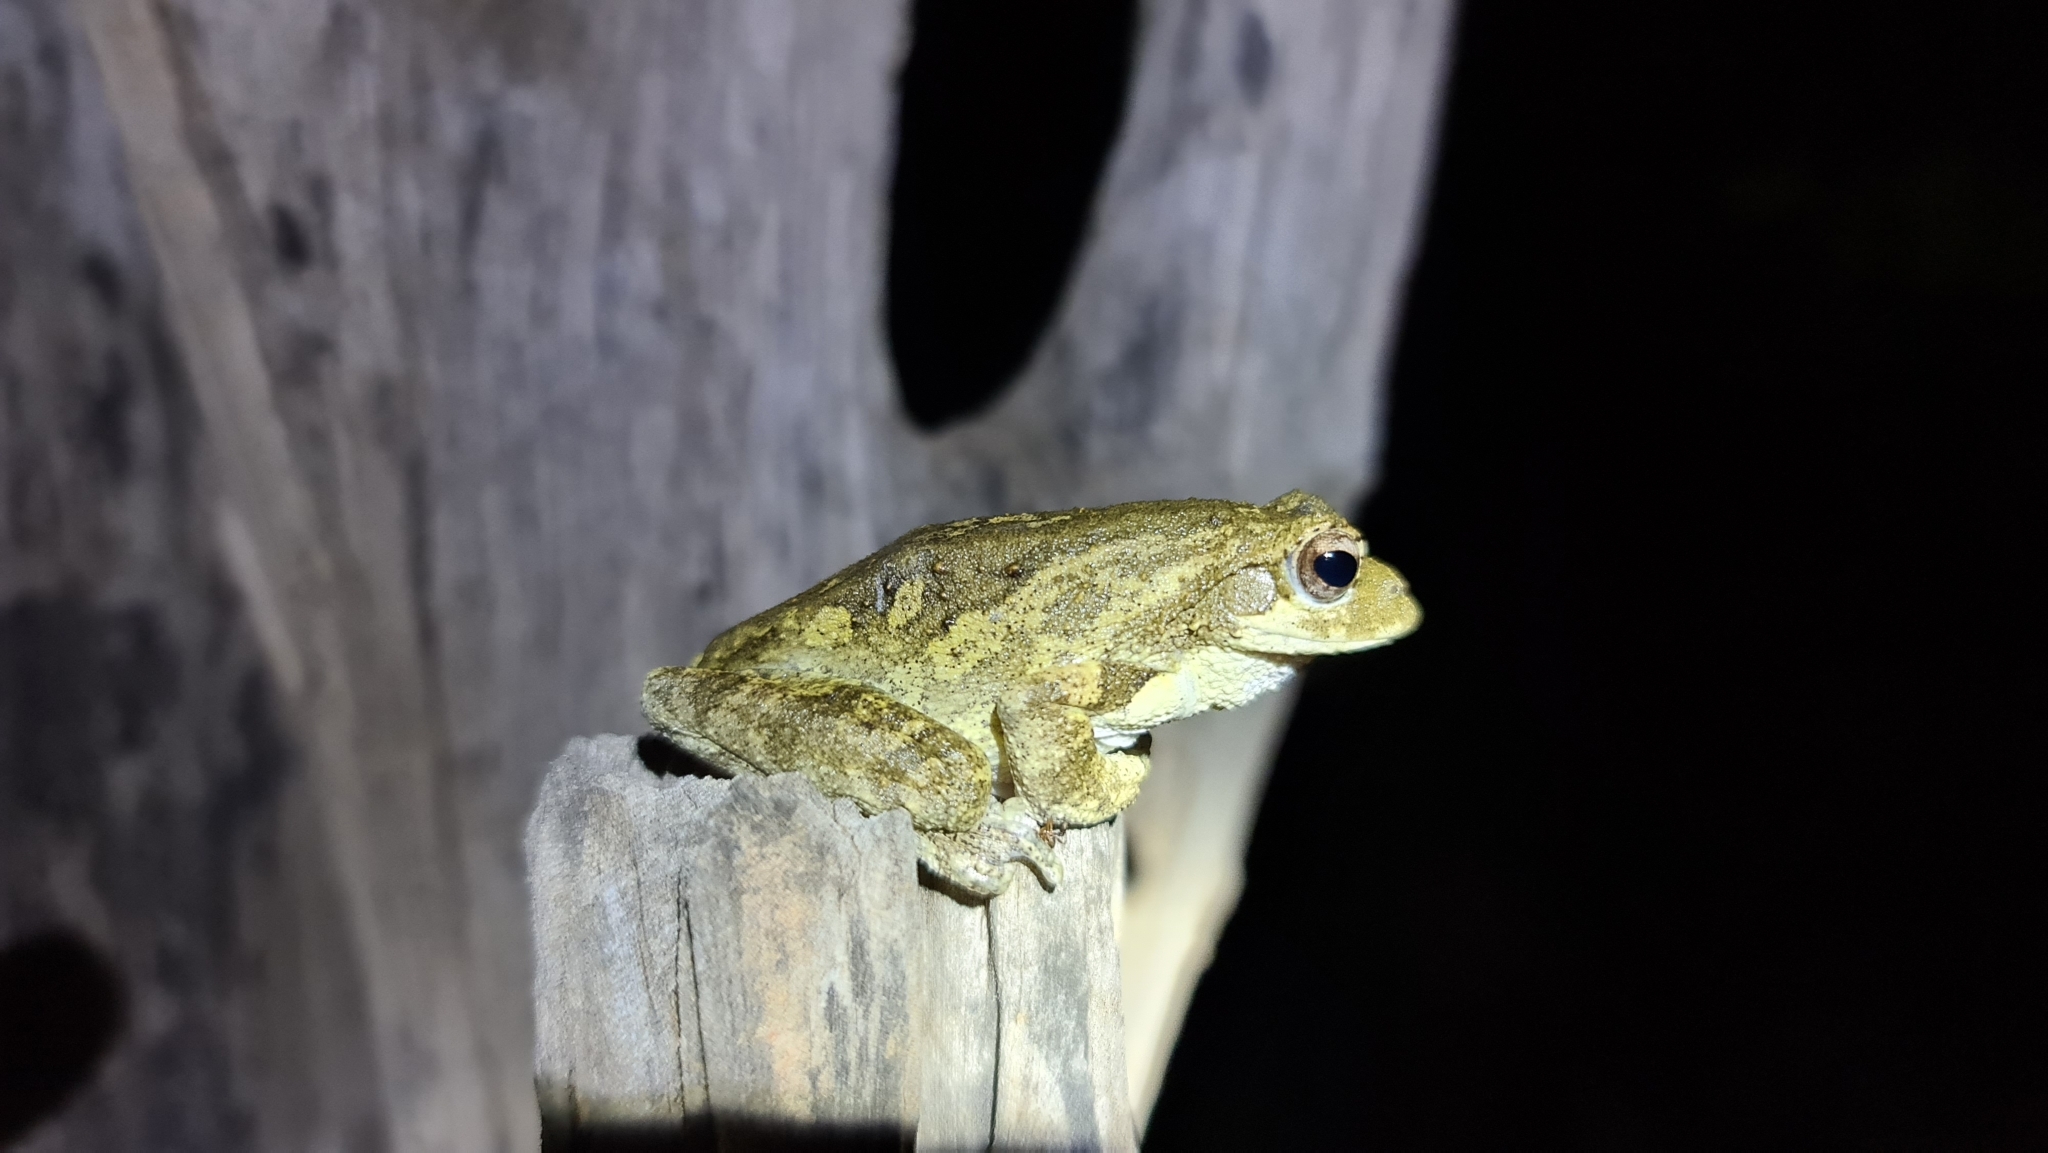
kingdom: Animalia
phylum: Chordata
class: Amphibia
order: Anura
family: Rhacophoridae
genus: Chiromantis
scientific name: Chiromantis xerampelina
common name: African gray treefrog
